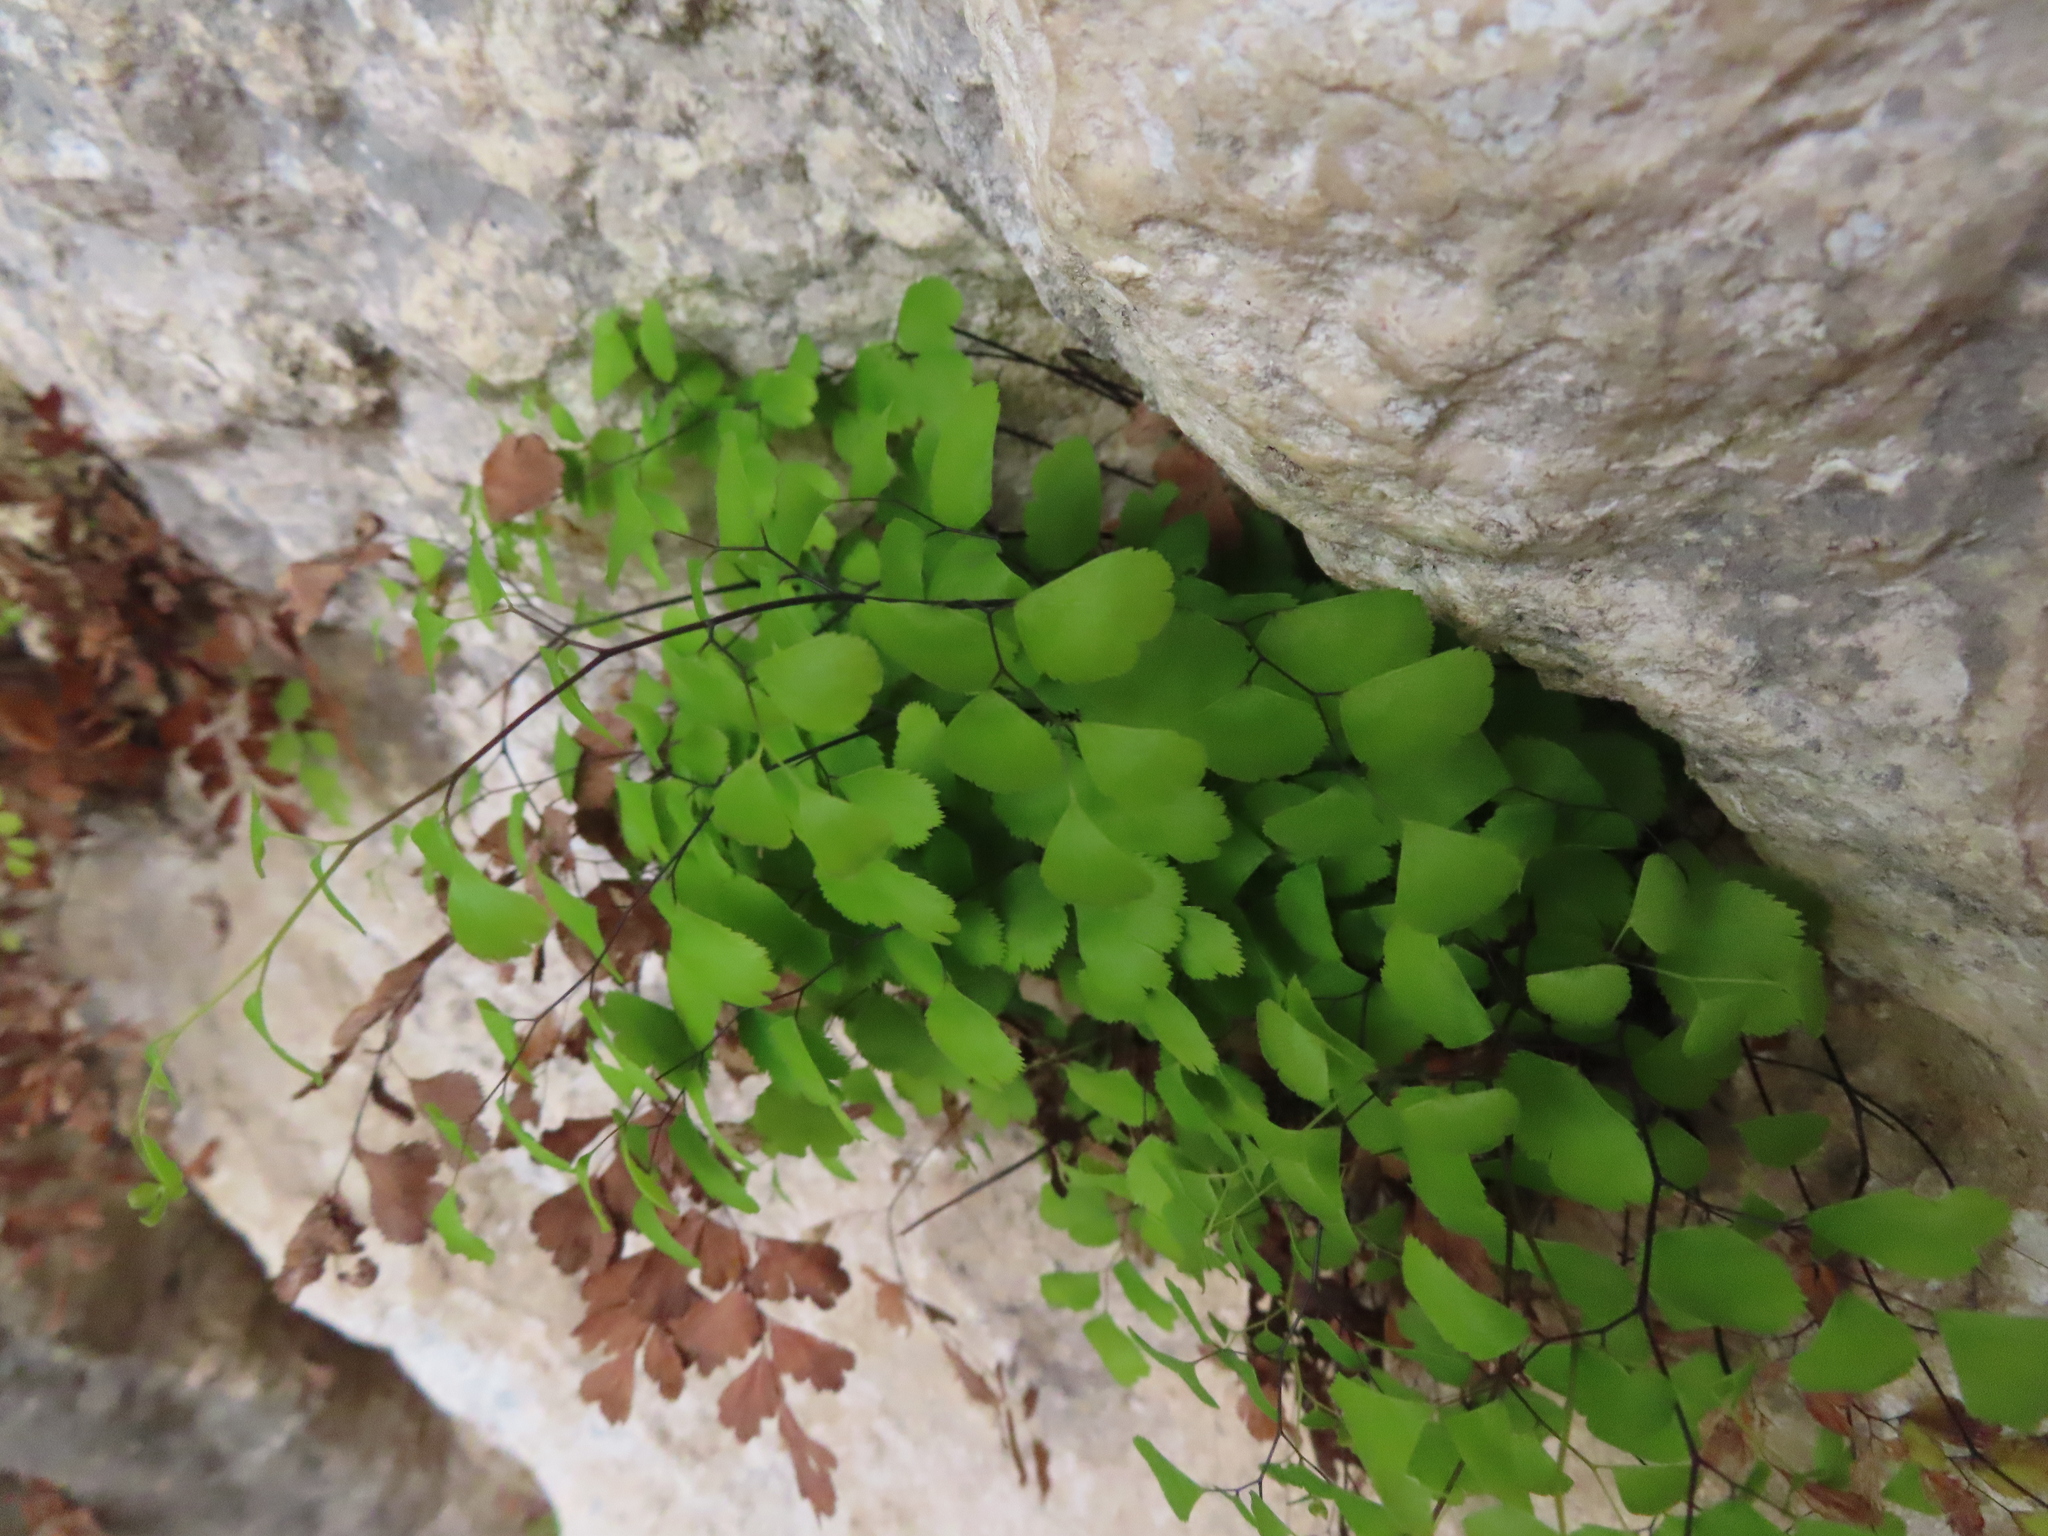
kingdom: Plantae
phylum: Tracheophyta
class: Polypodiopsida
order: Polypodiales
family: Pteridaceae
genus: Adiantum
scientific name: Adiantum capillus-veneris
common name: Maidenhair fern
